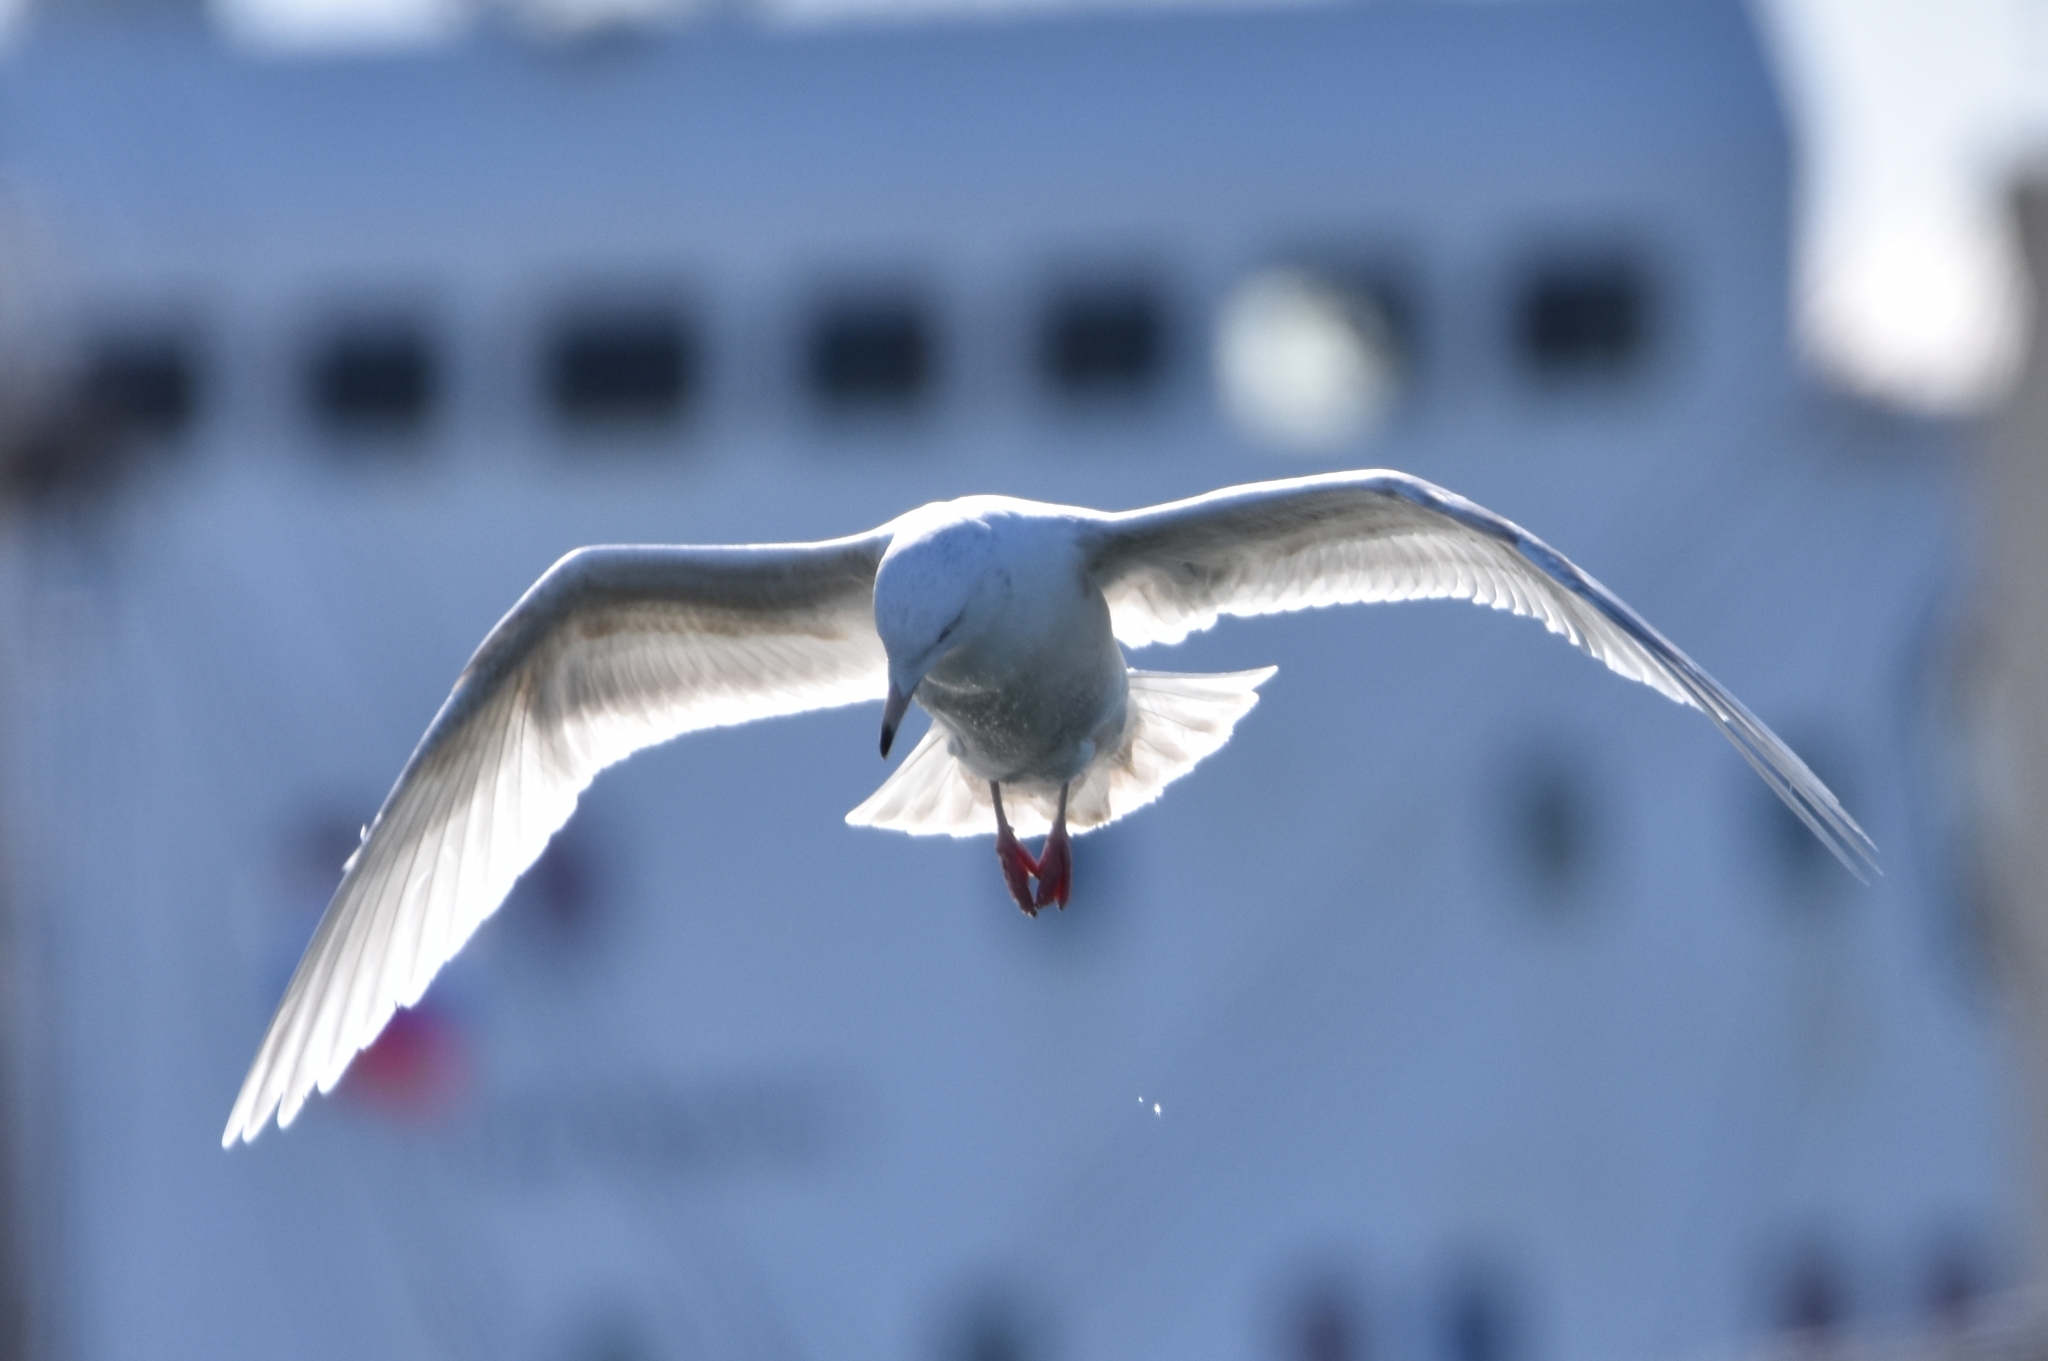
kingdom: Animalia
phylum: Chordata
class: Aves
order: Charadriiformes
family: Laridae
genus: Larus
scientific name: Larus hyperboreus
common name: Glaucous gull
